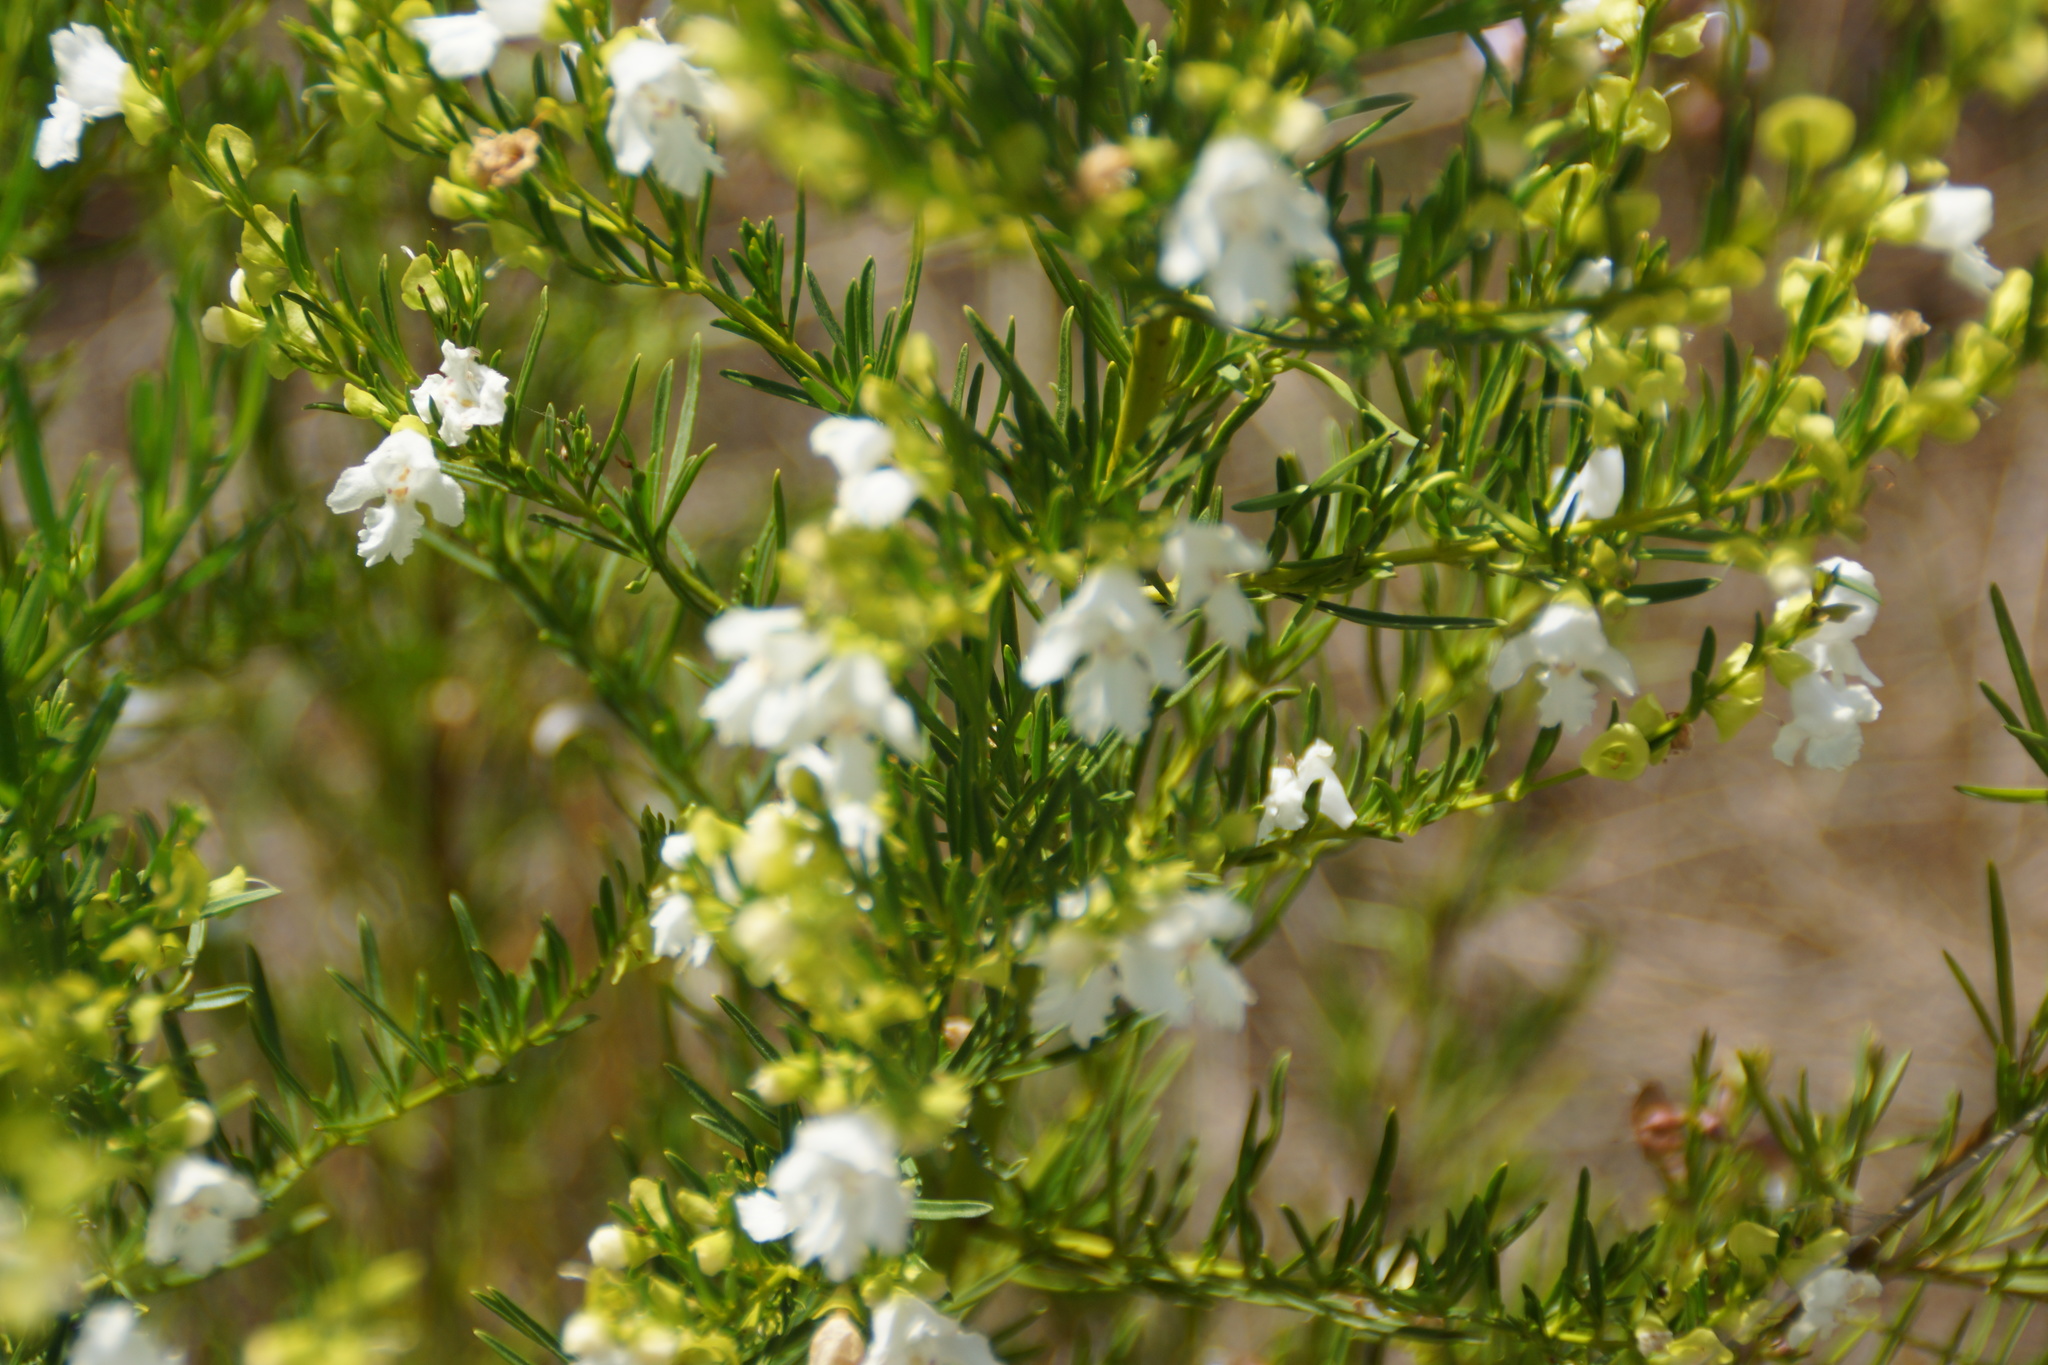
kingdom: Plantae
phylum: Tracheophyta
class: Magnoliopsida
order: Lamiales
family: Lamiaceae
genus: Prostanthera
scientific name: Prostanthera nivea
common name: Snowy mintbush
